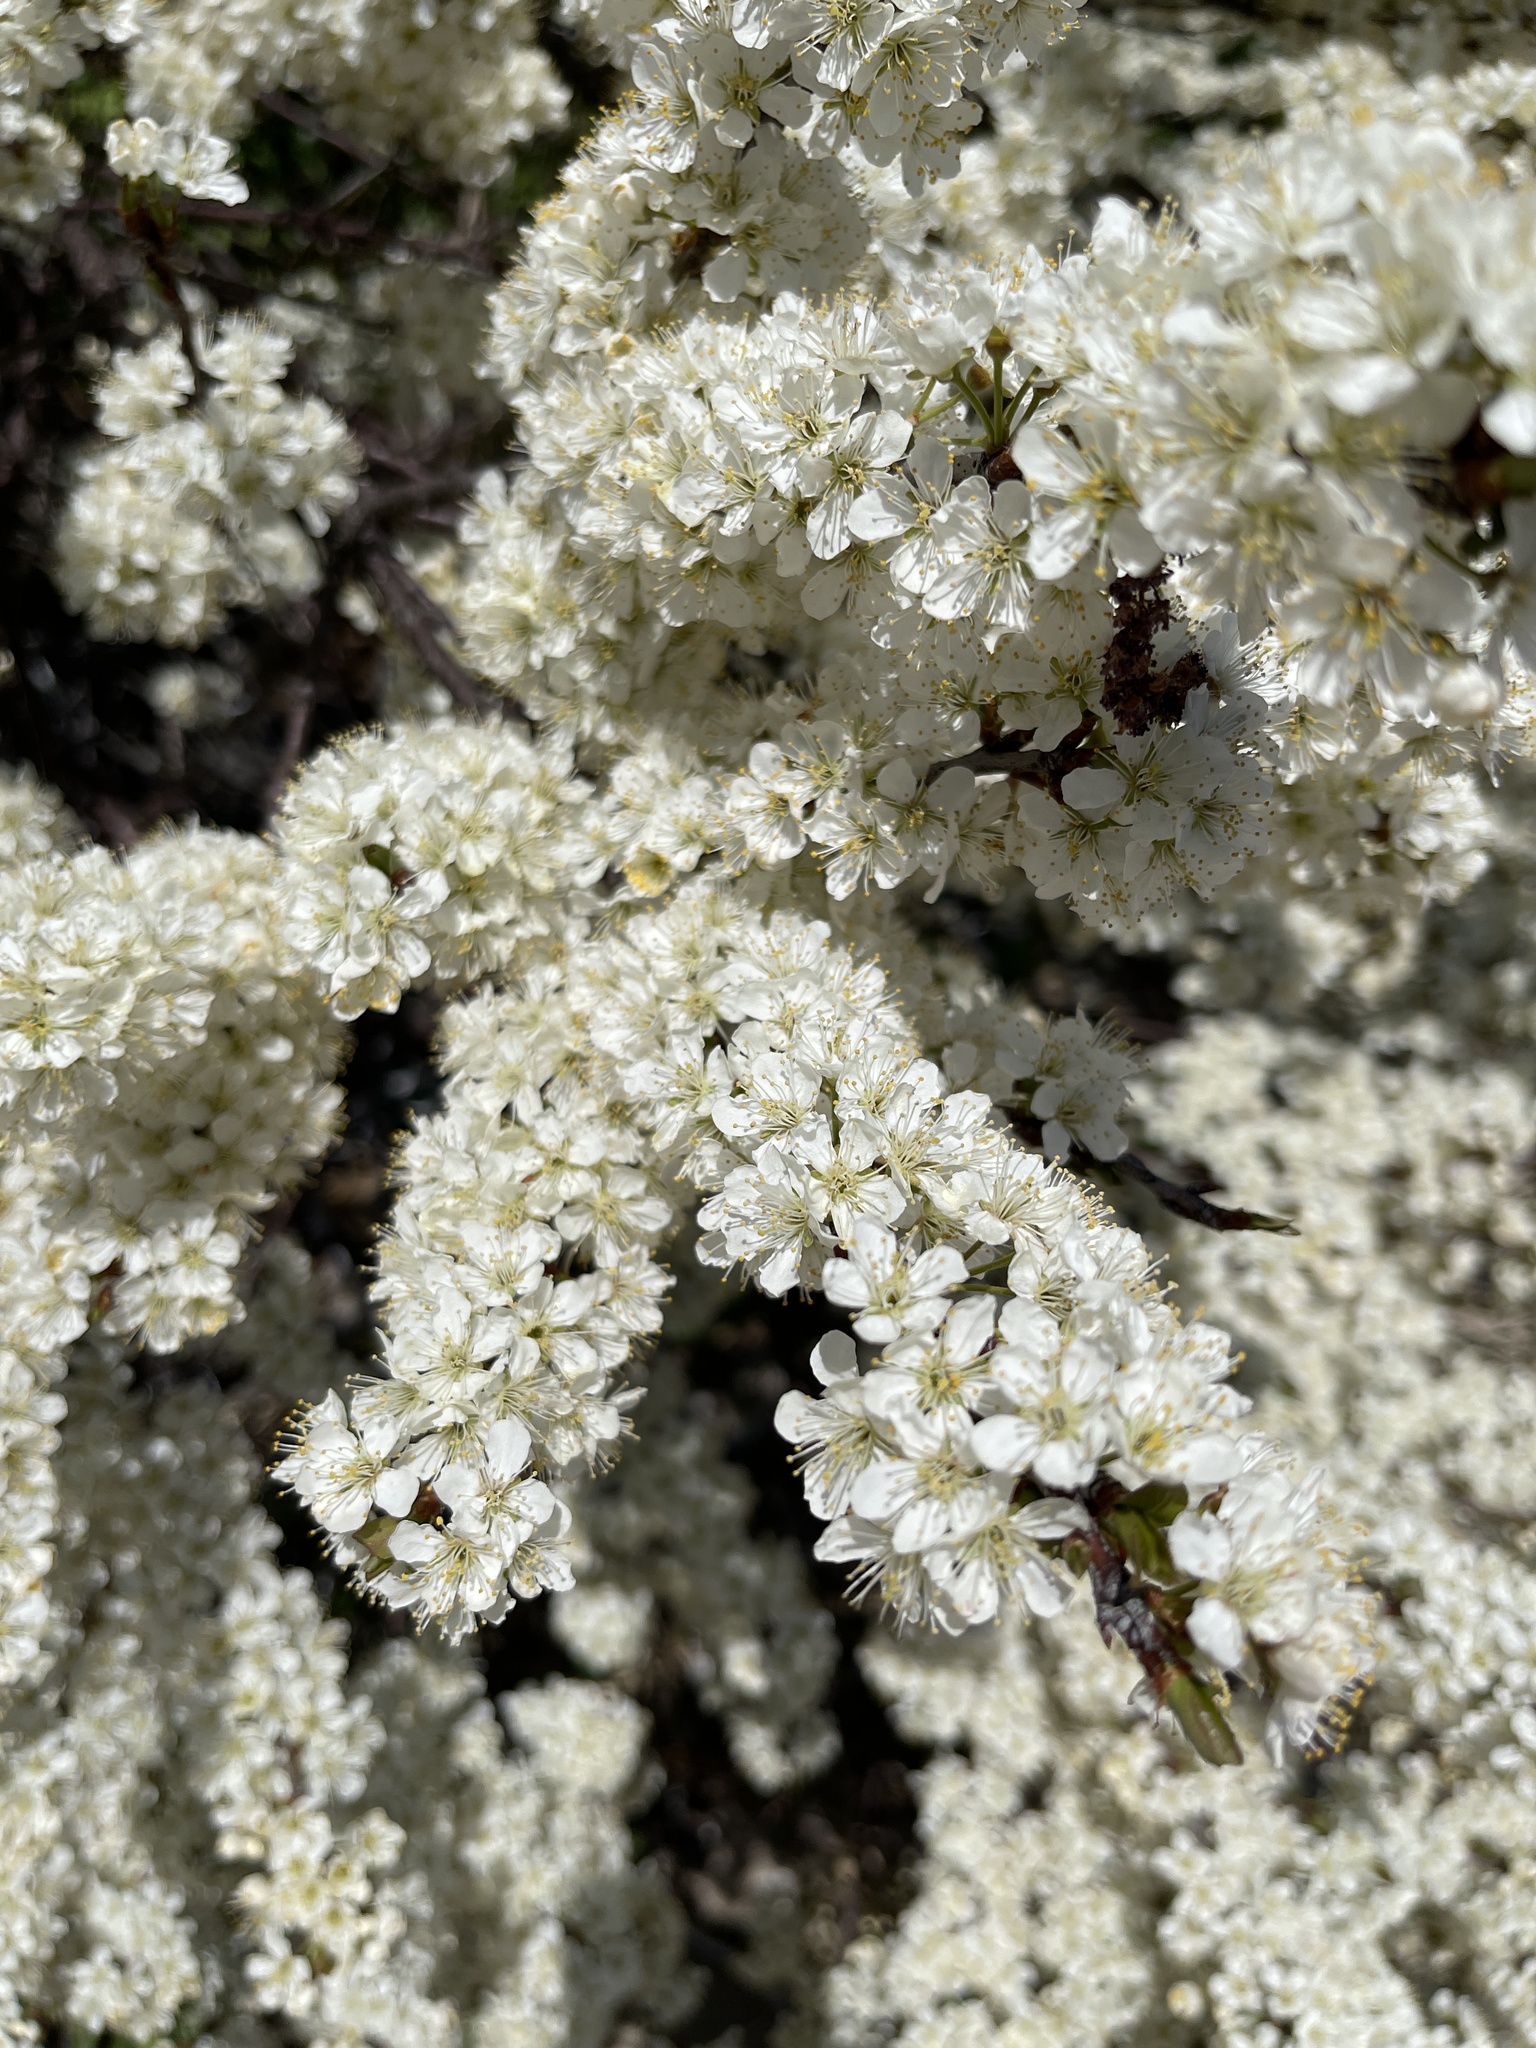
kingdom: Plantae
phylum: Tracheophyta
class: Magnoliopsida
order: Rosales
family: Rosaceae
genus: Prunus
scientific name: Prunus maritima
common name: Beach plum
